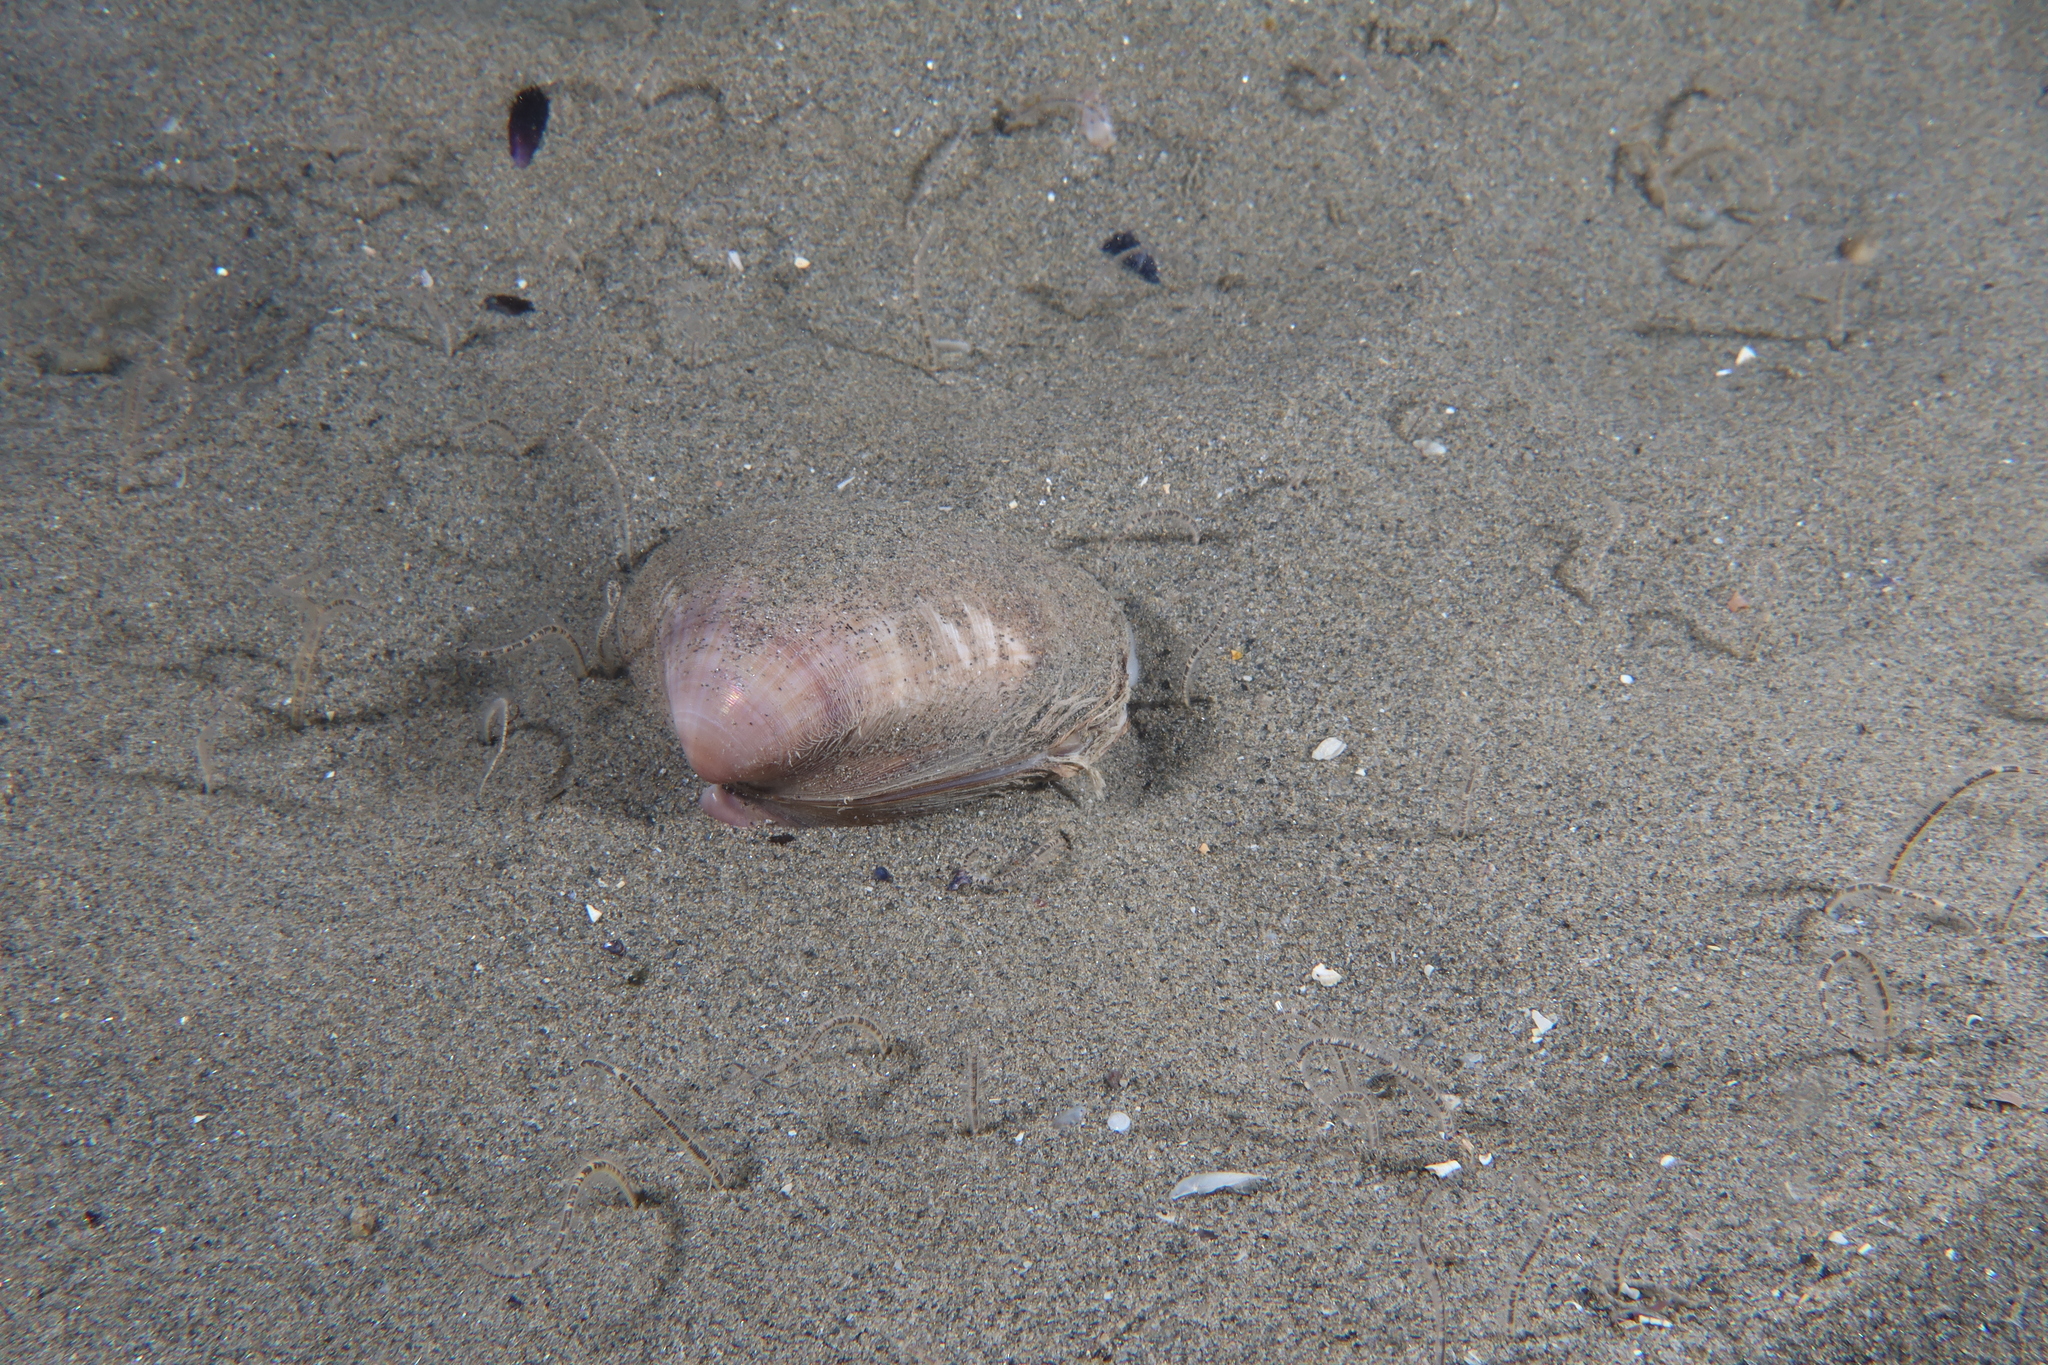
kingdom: Animalia
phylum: Mollusca
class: Bivalvia
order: Venerida
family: Mactridae
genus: Mactra
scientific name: Mactra stultorum
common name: Rayed trough shell
